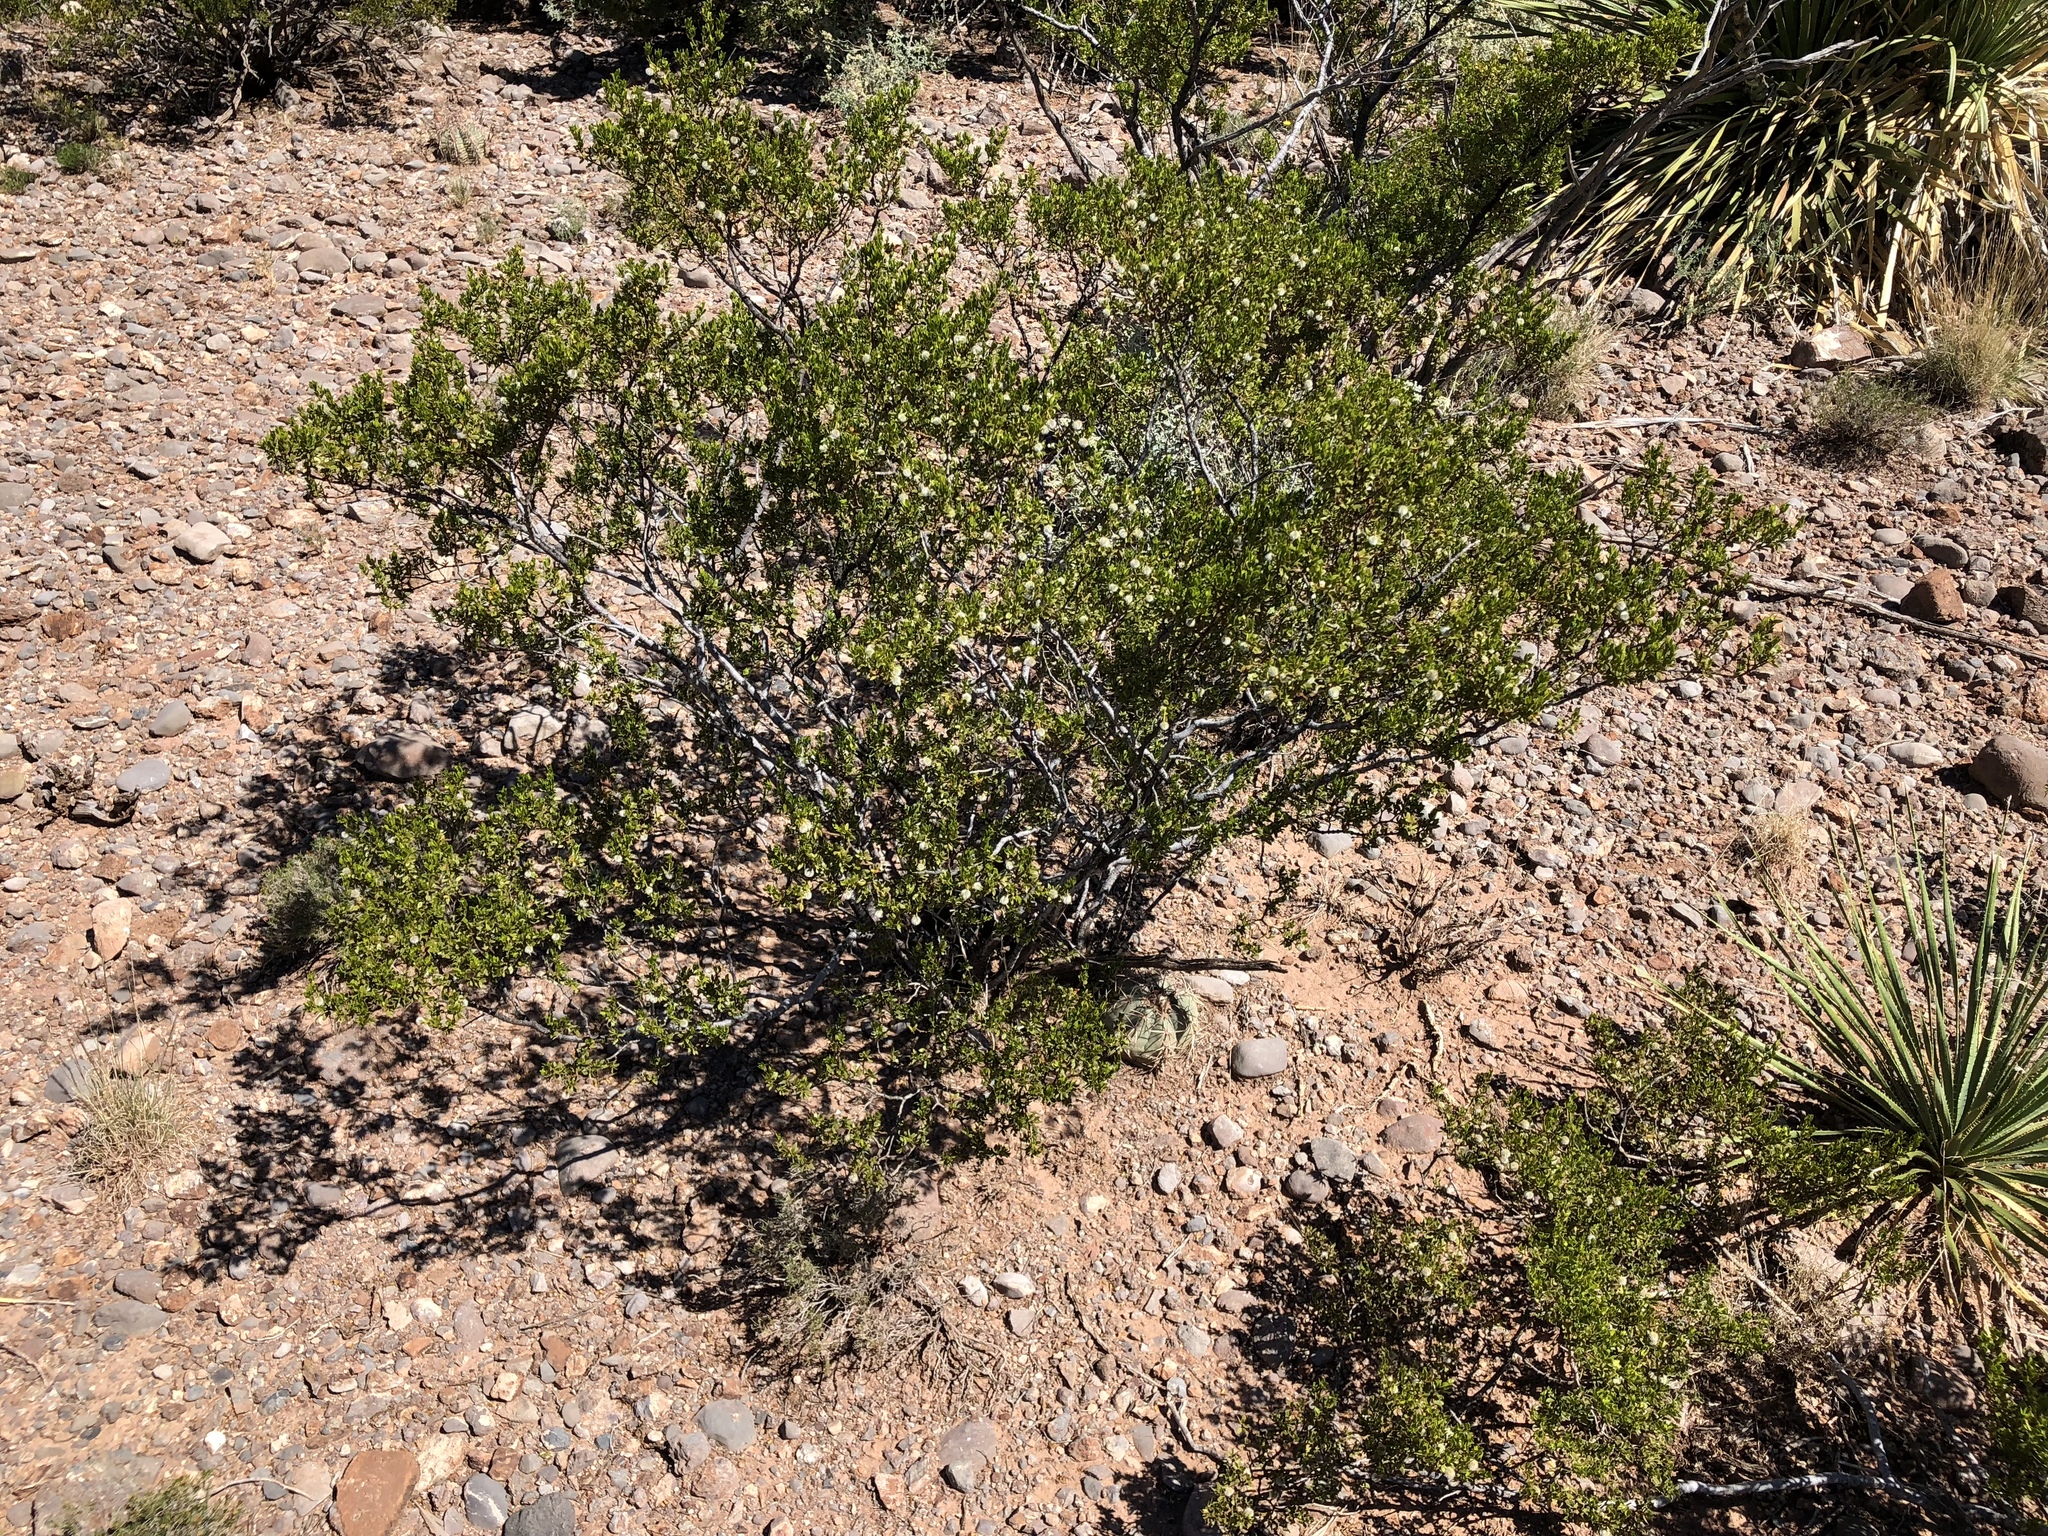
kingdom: Plantae
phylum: Tracheophyta
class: Magnoliopsida
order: Zygophyllales
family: Zygophyllaceae
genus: Larrea
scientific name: Larrea tridentata
